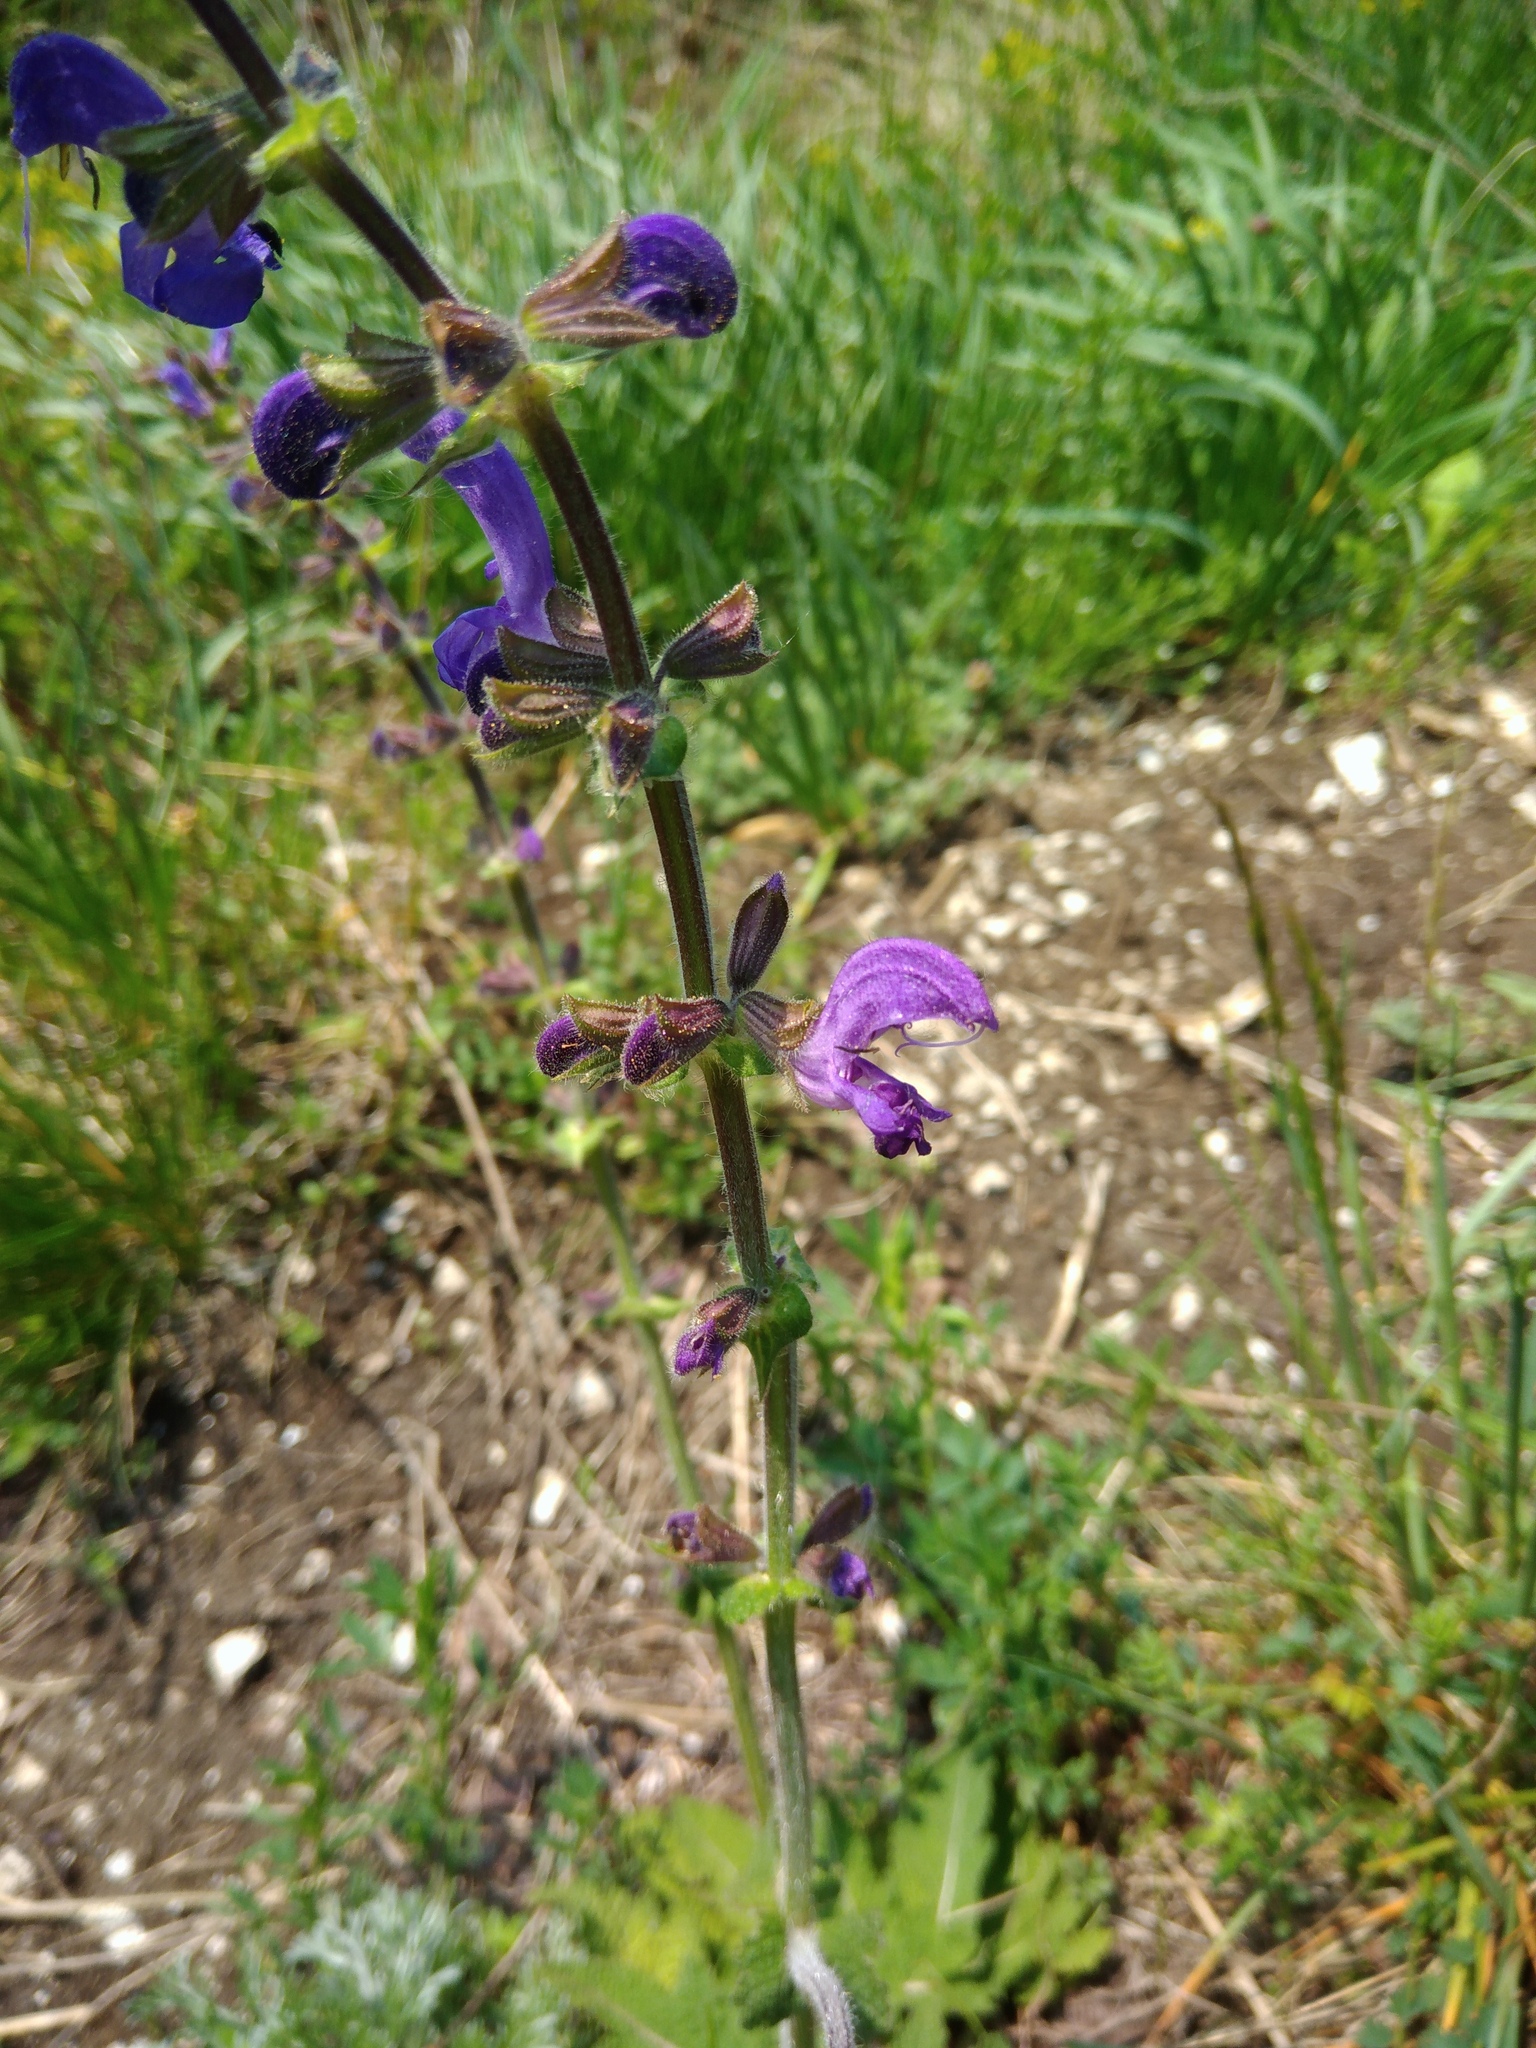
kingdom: Plantae
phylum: Tracheophyta
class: Magnoliopsida
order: Lamiales
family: Lamiaceae
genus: Salvia
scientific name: Salvia pratensis
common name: Meadow sage
